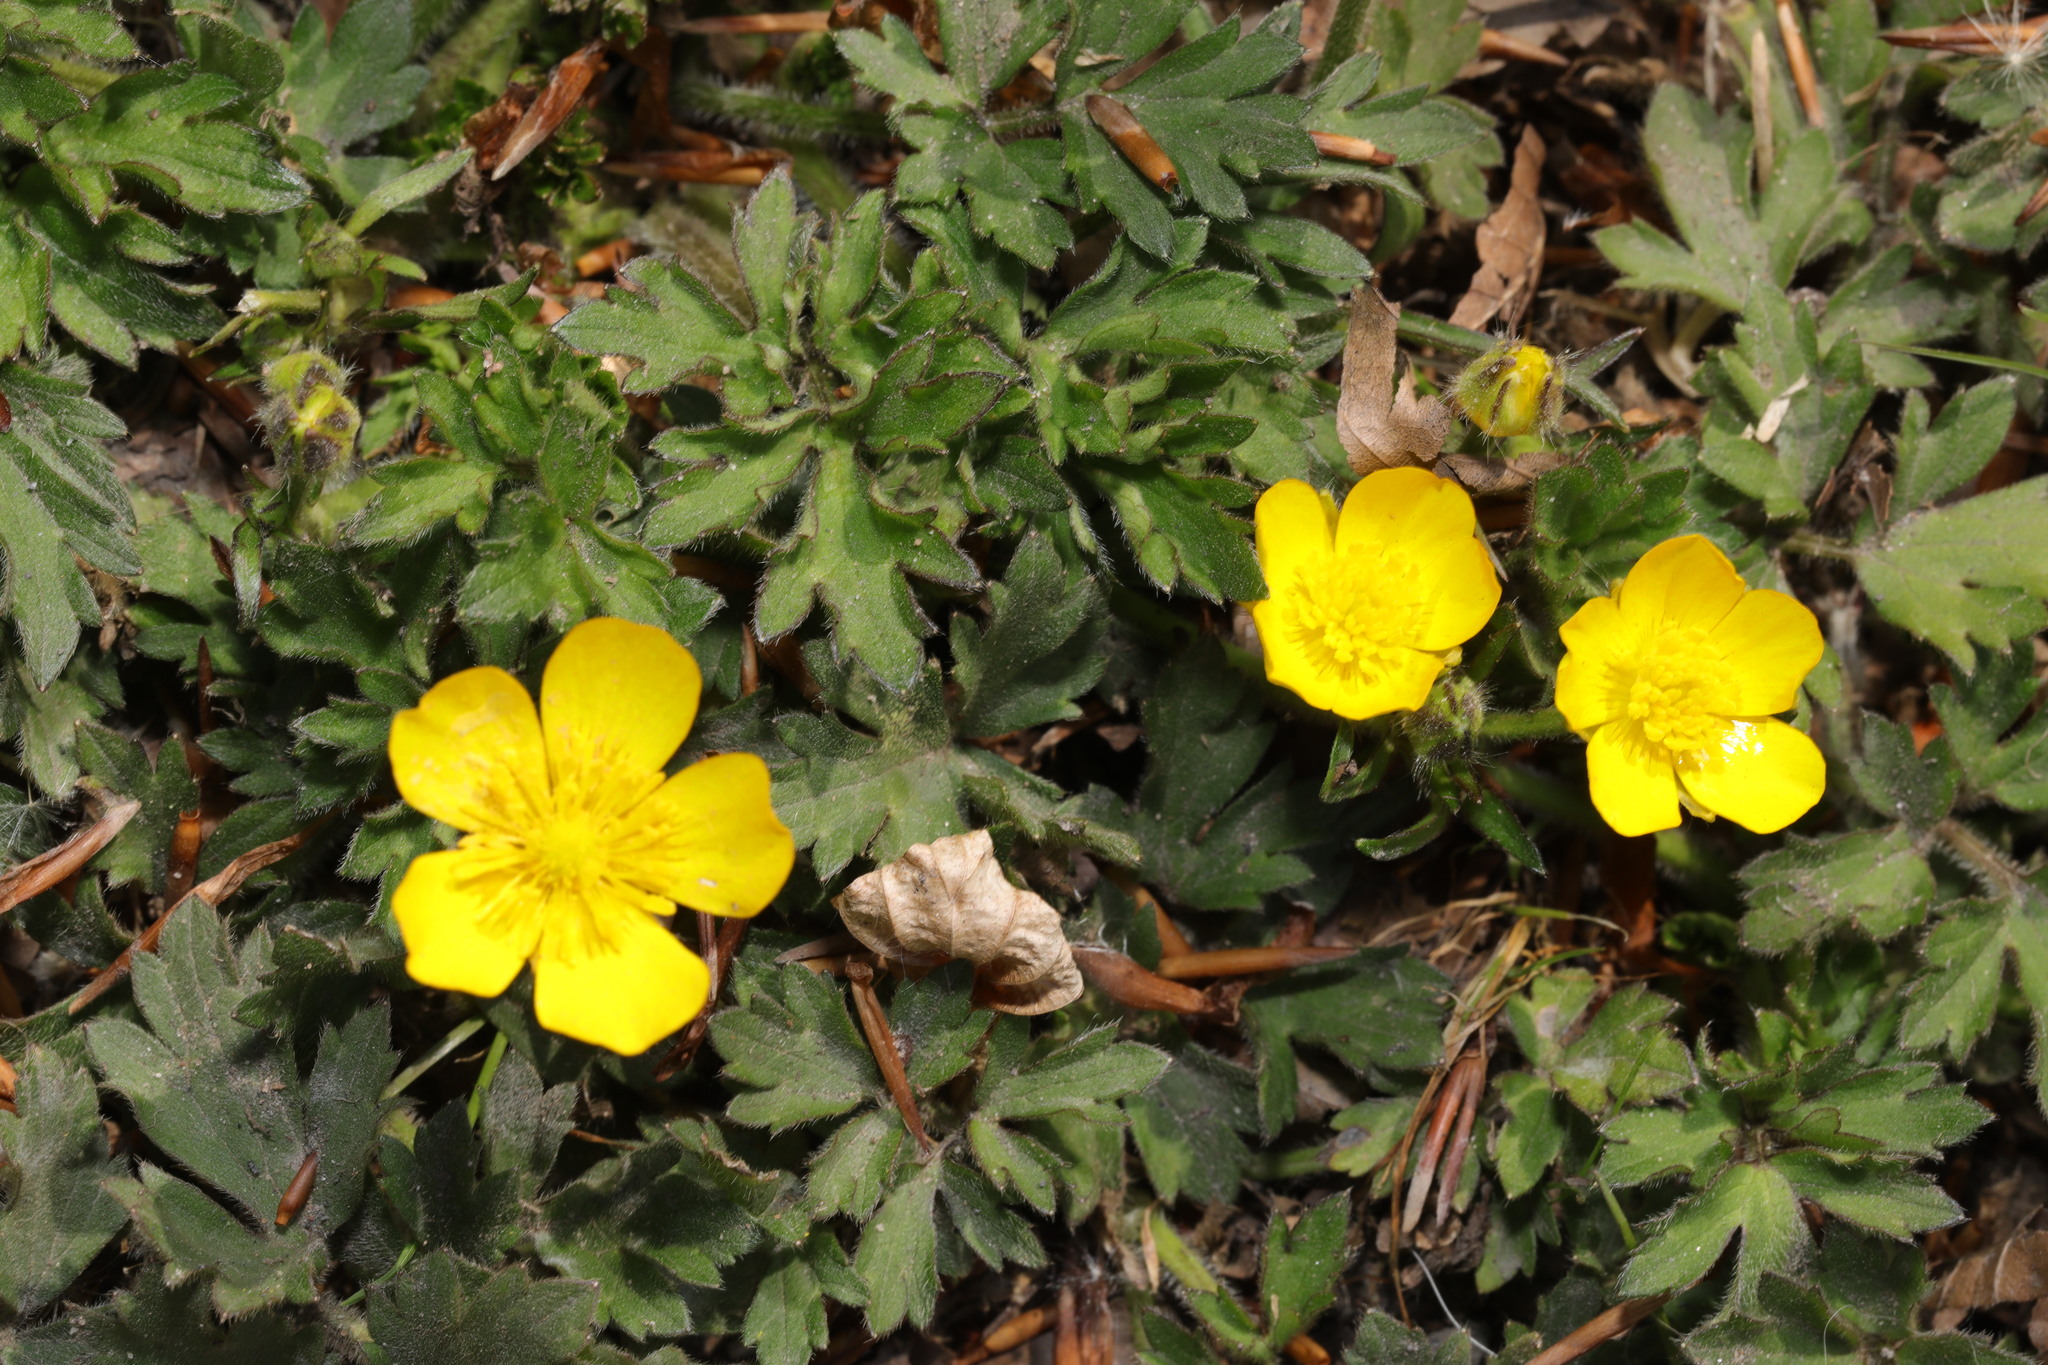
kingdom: Plantae
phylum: Tracheophyta
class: Magnoliopsida
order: Ranunculales
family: Ranunculaceae
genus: Ranunculus
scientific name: Ranunculus repens
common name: Creeping buttercup
